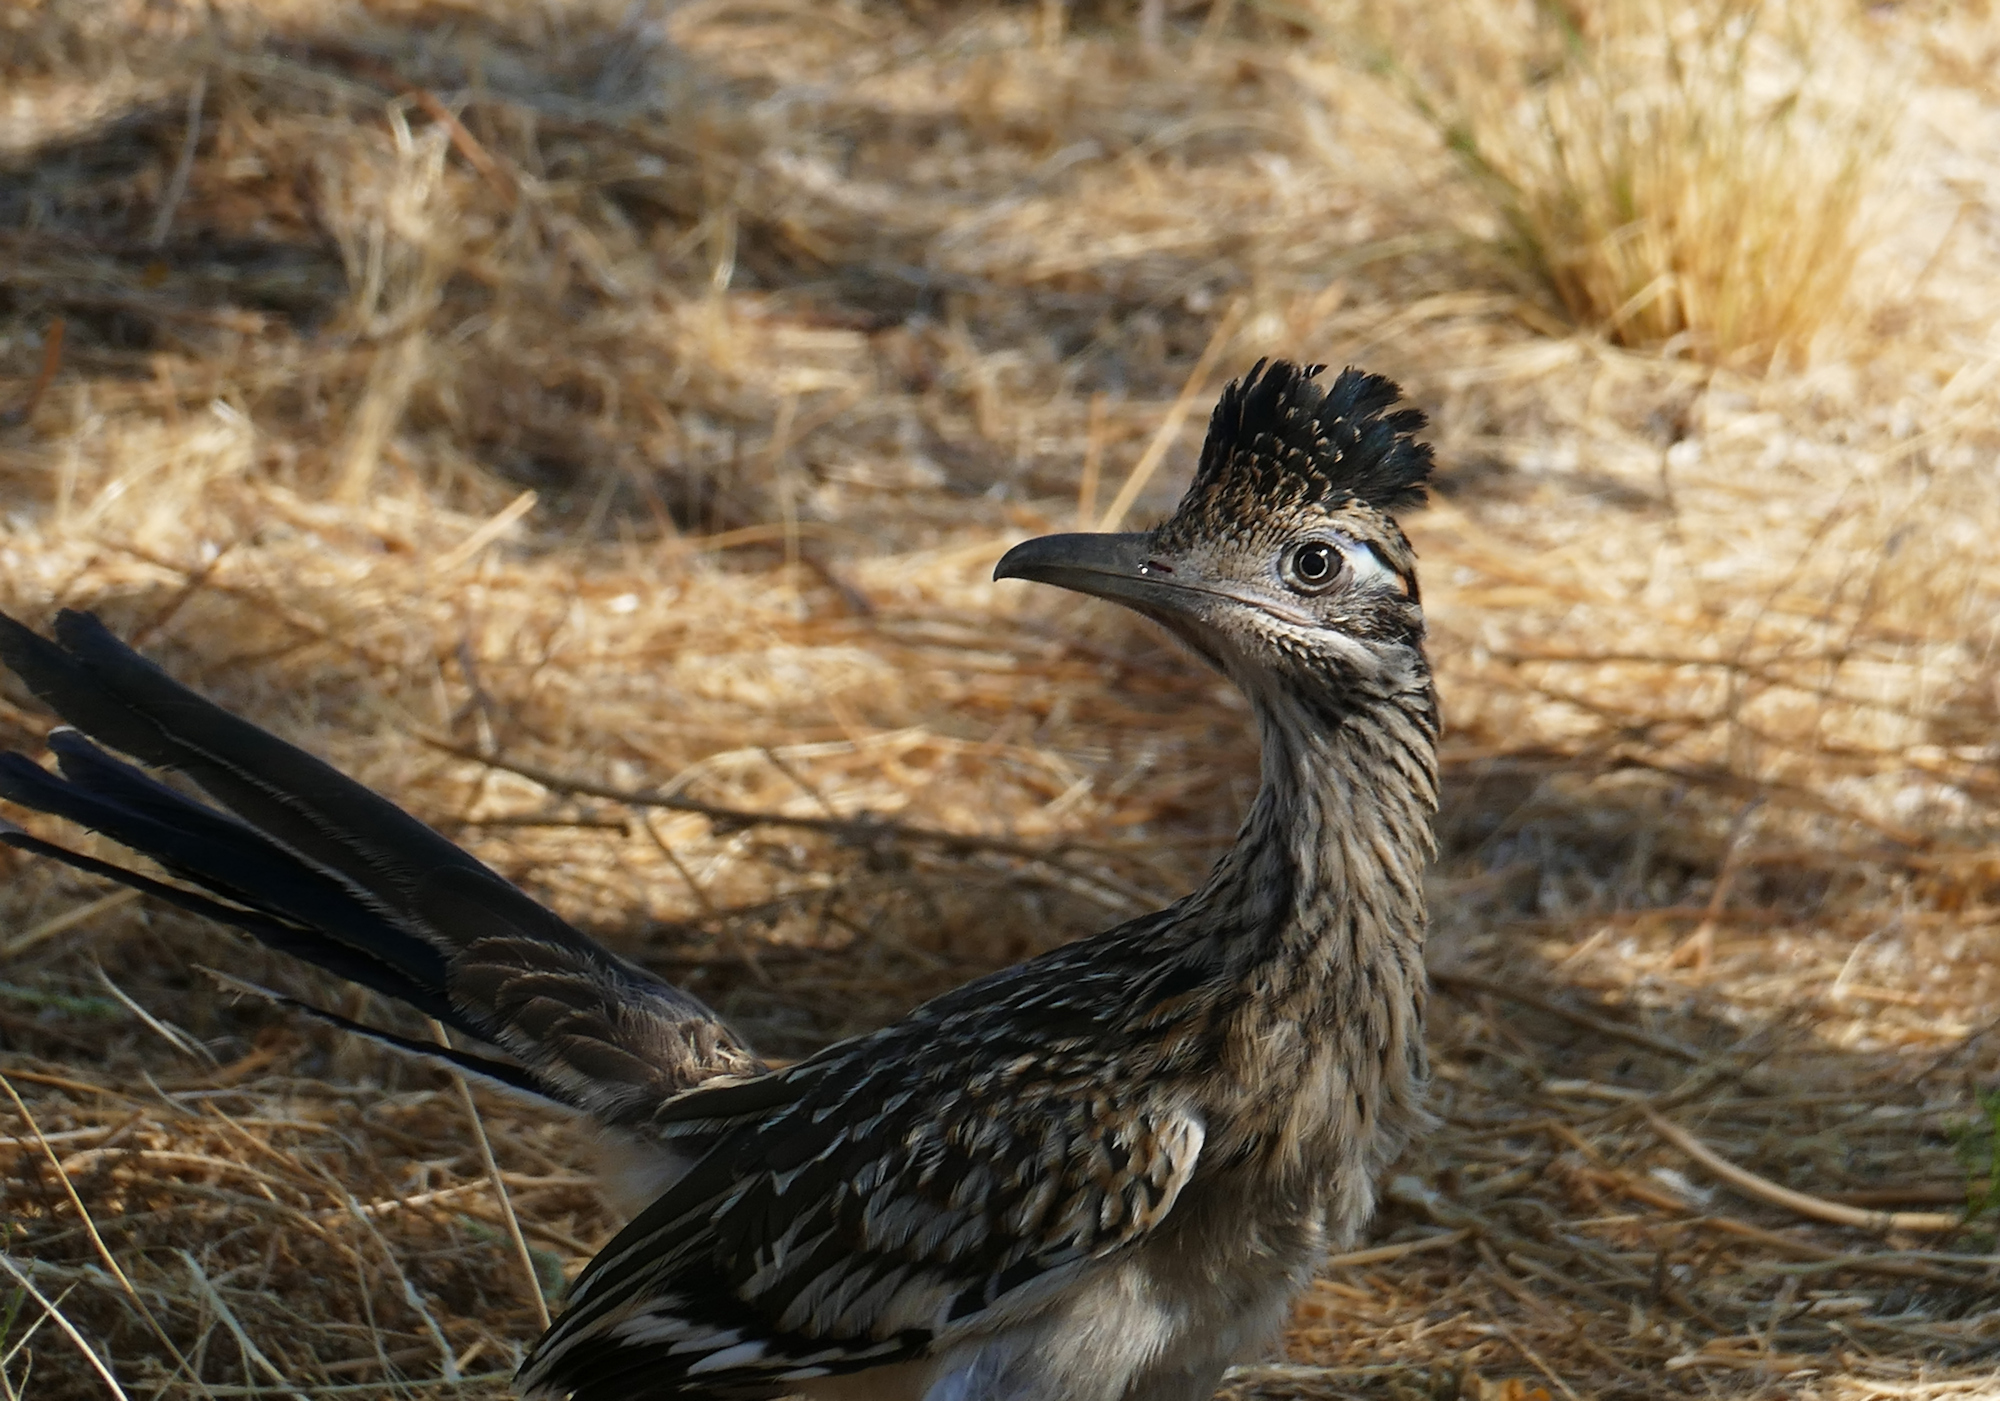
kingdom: Animalia
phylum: Chordata
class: Aves
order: Cuculiformes
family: Cuculidae
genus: Geococcyx
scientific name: Geococcyx californianus
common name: Greater roadrunner
